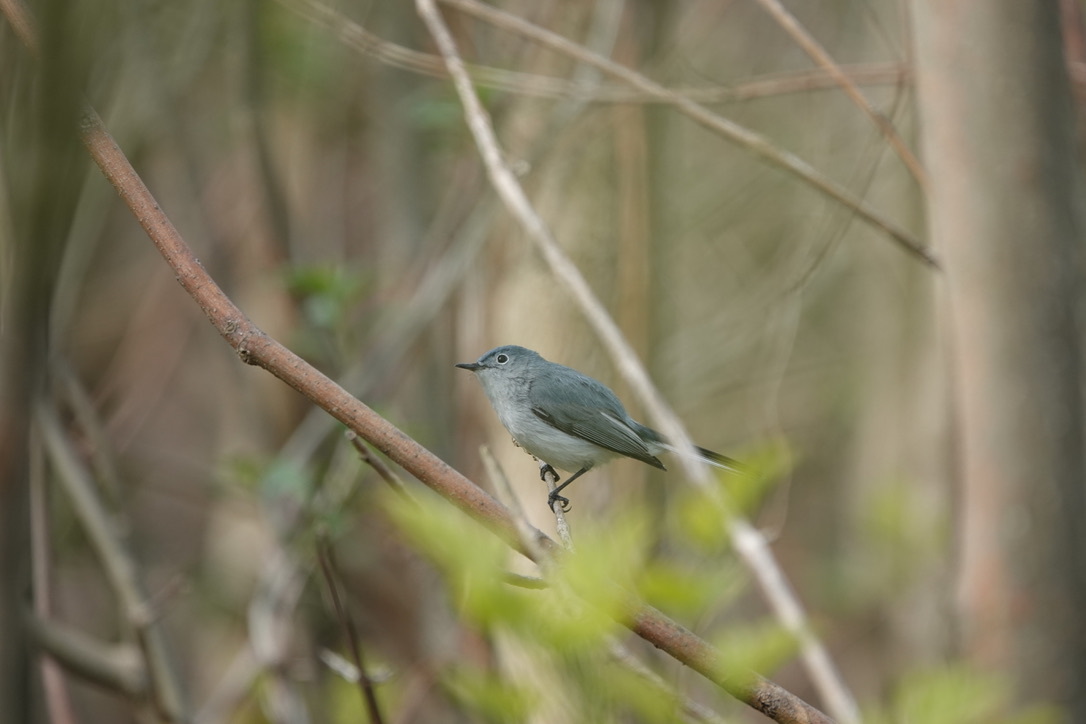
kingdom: Animalia
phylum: Chordata
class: Aves
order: Passeriformes
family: Polioptilidae
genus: Polioptila
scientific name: Polioptila caerulea
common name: Blue-gray gnatcatcher
